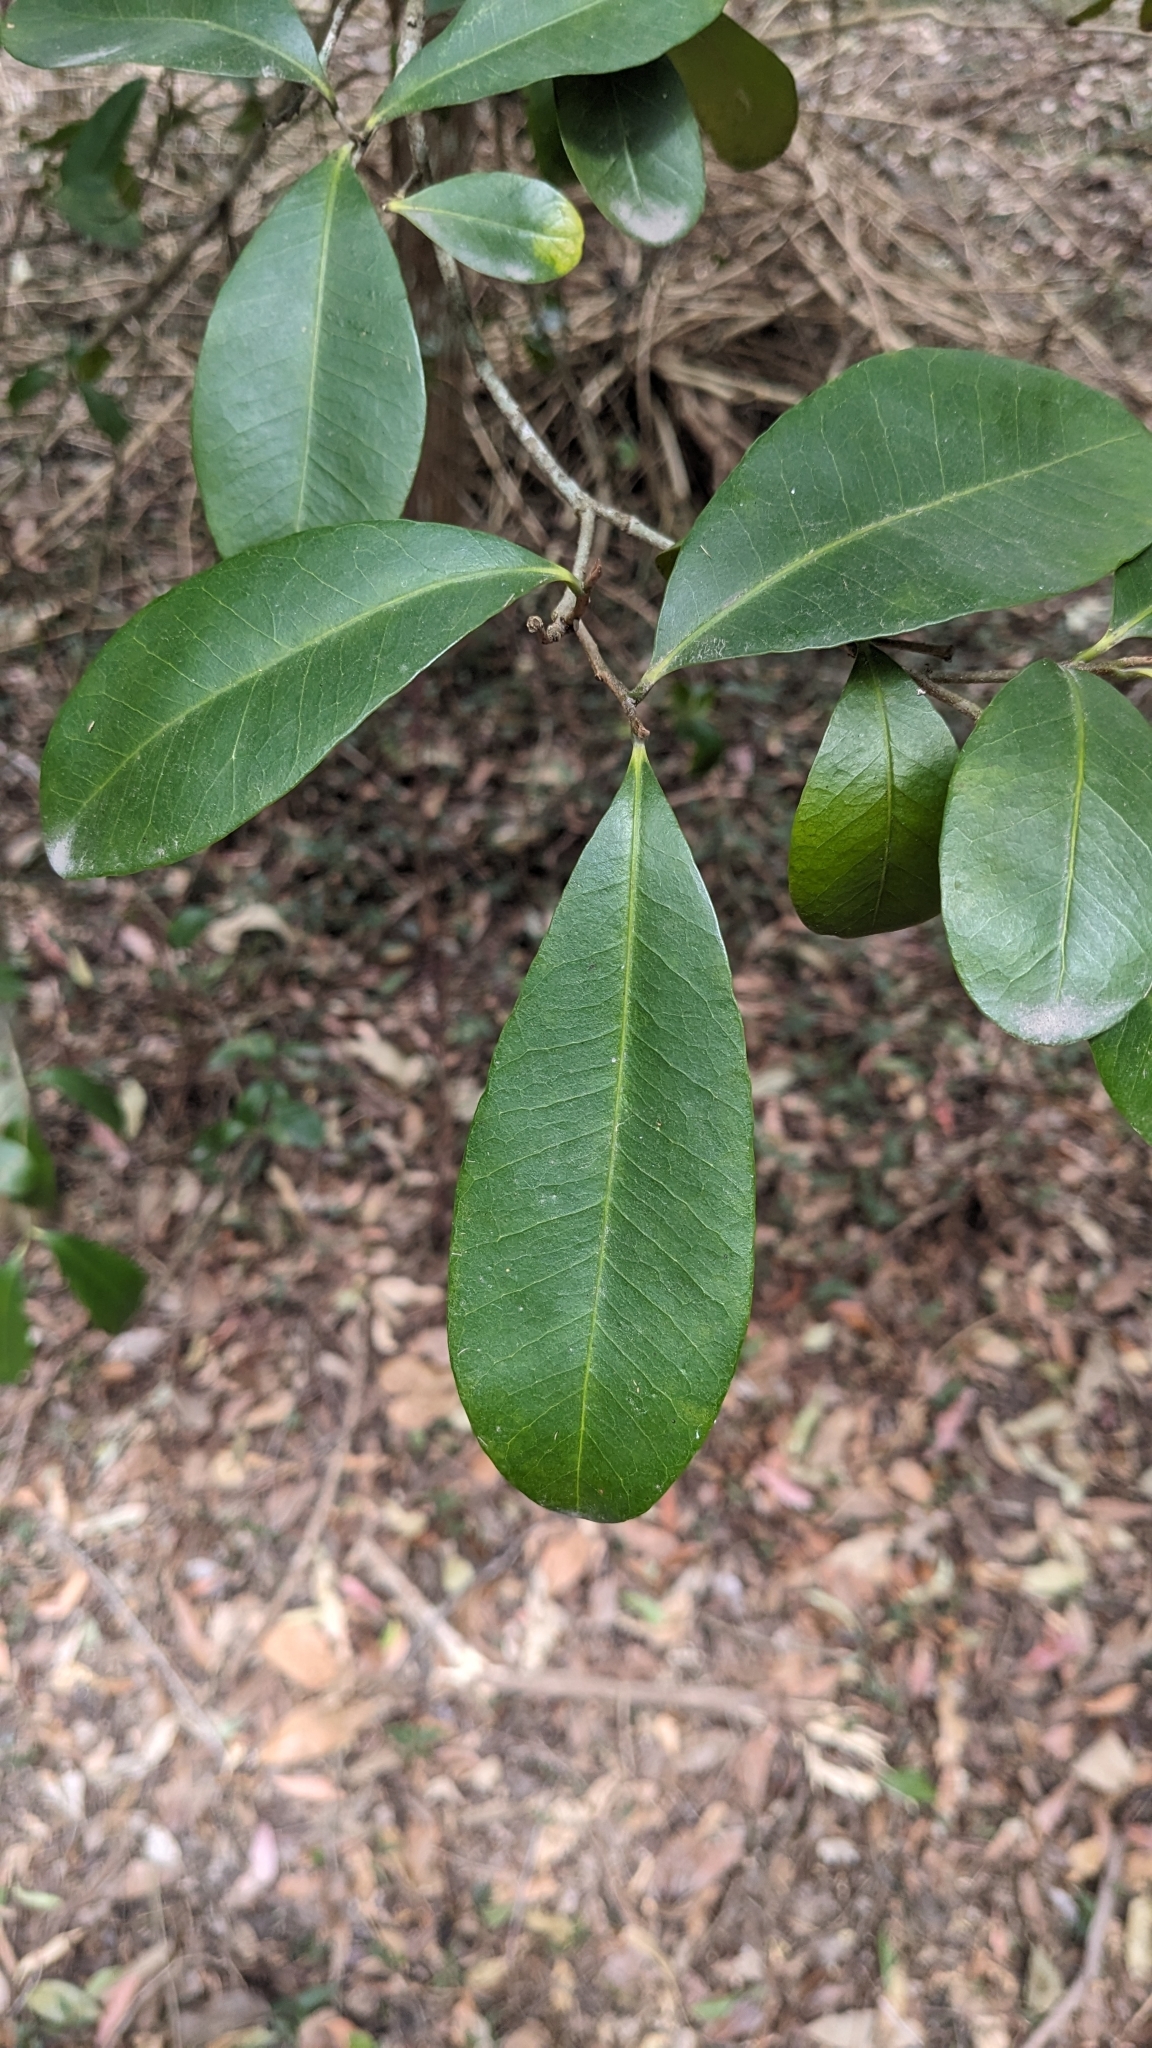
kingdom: Plantae
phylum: Tracheophyta
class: Magnoliopsida
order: Sapindales
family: Sapindaceae
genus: Guioa
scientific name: Guioa semiglauca
